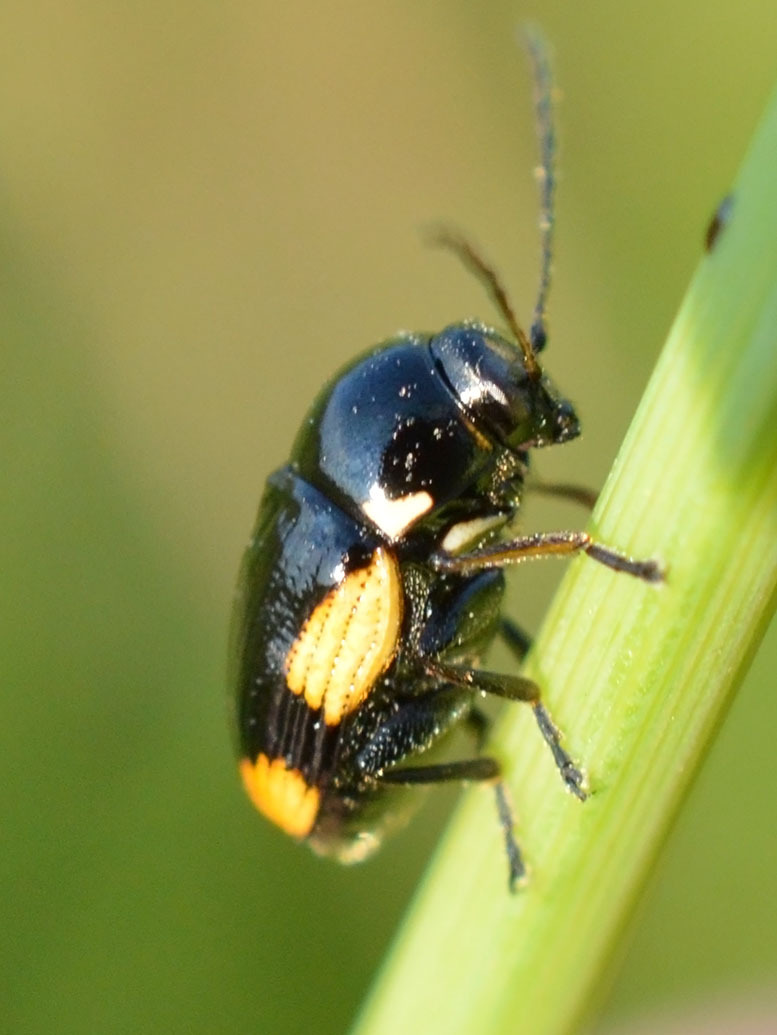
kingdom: Animalia
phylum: Arthropoda
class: Insecta
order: Coleoptera
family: Chrysomelidae
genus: Cryptocephalus
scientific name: Cryptocephalus moraei
